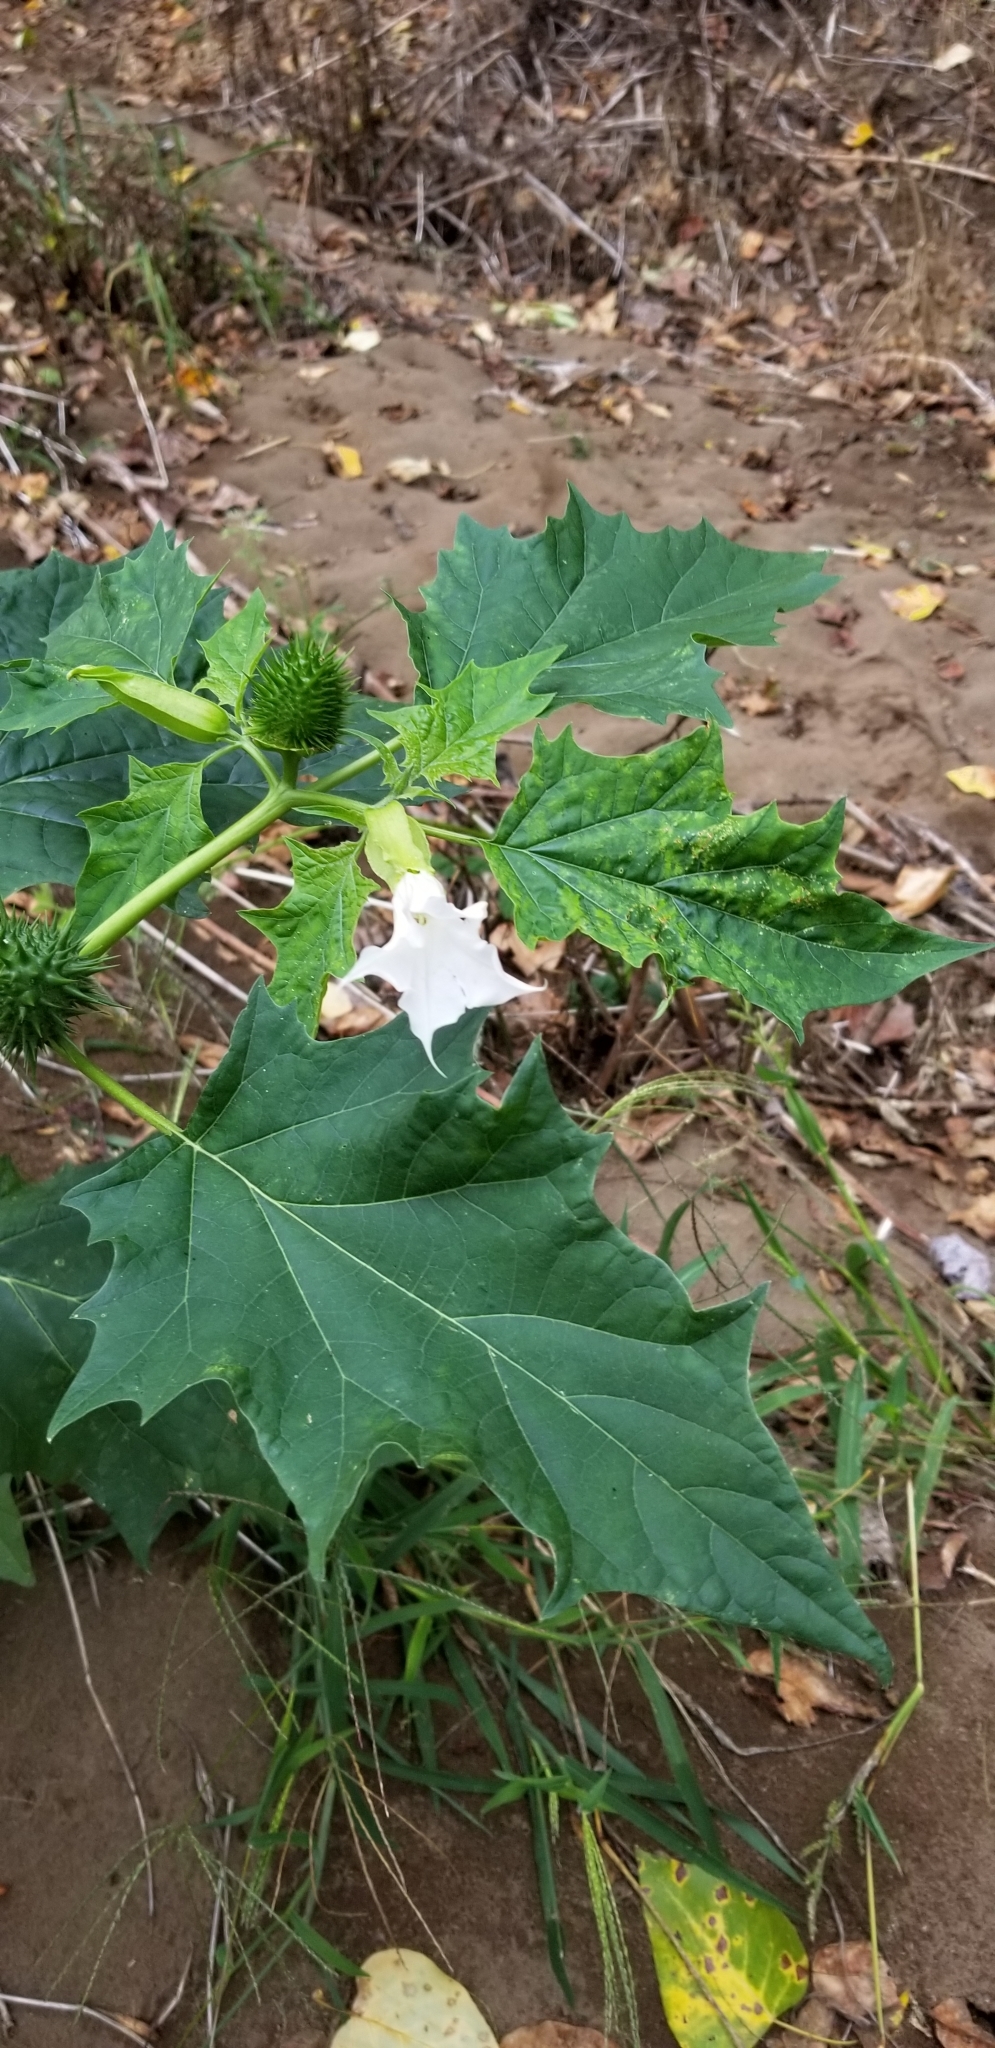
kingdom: Plantae
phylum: Tracheophyta
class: Magnoliopsida
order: Solanales
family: Solanaceae
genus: Datura
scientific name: Datura stramonium
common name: Thorn-apple
